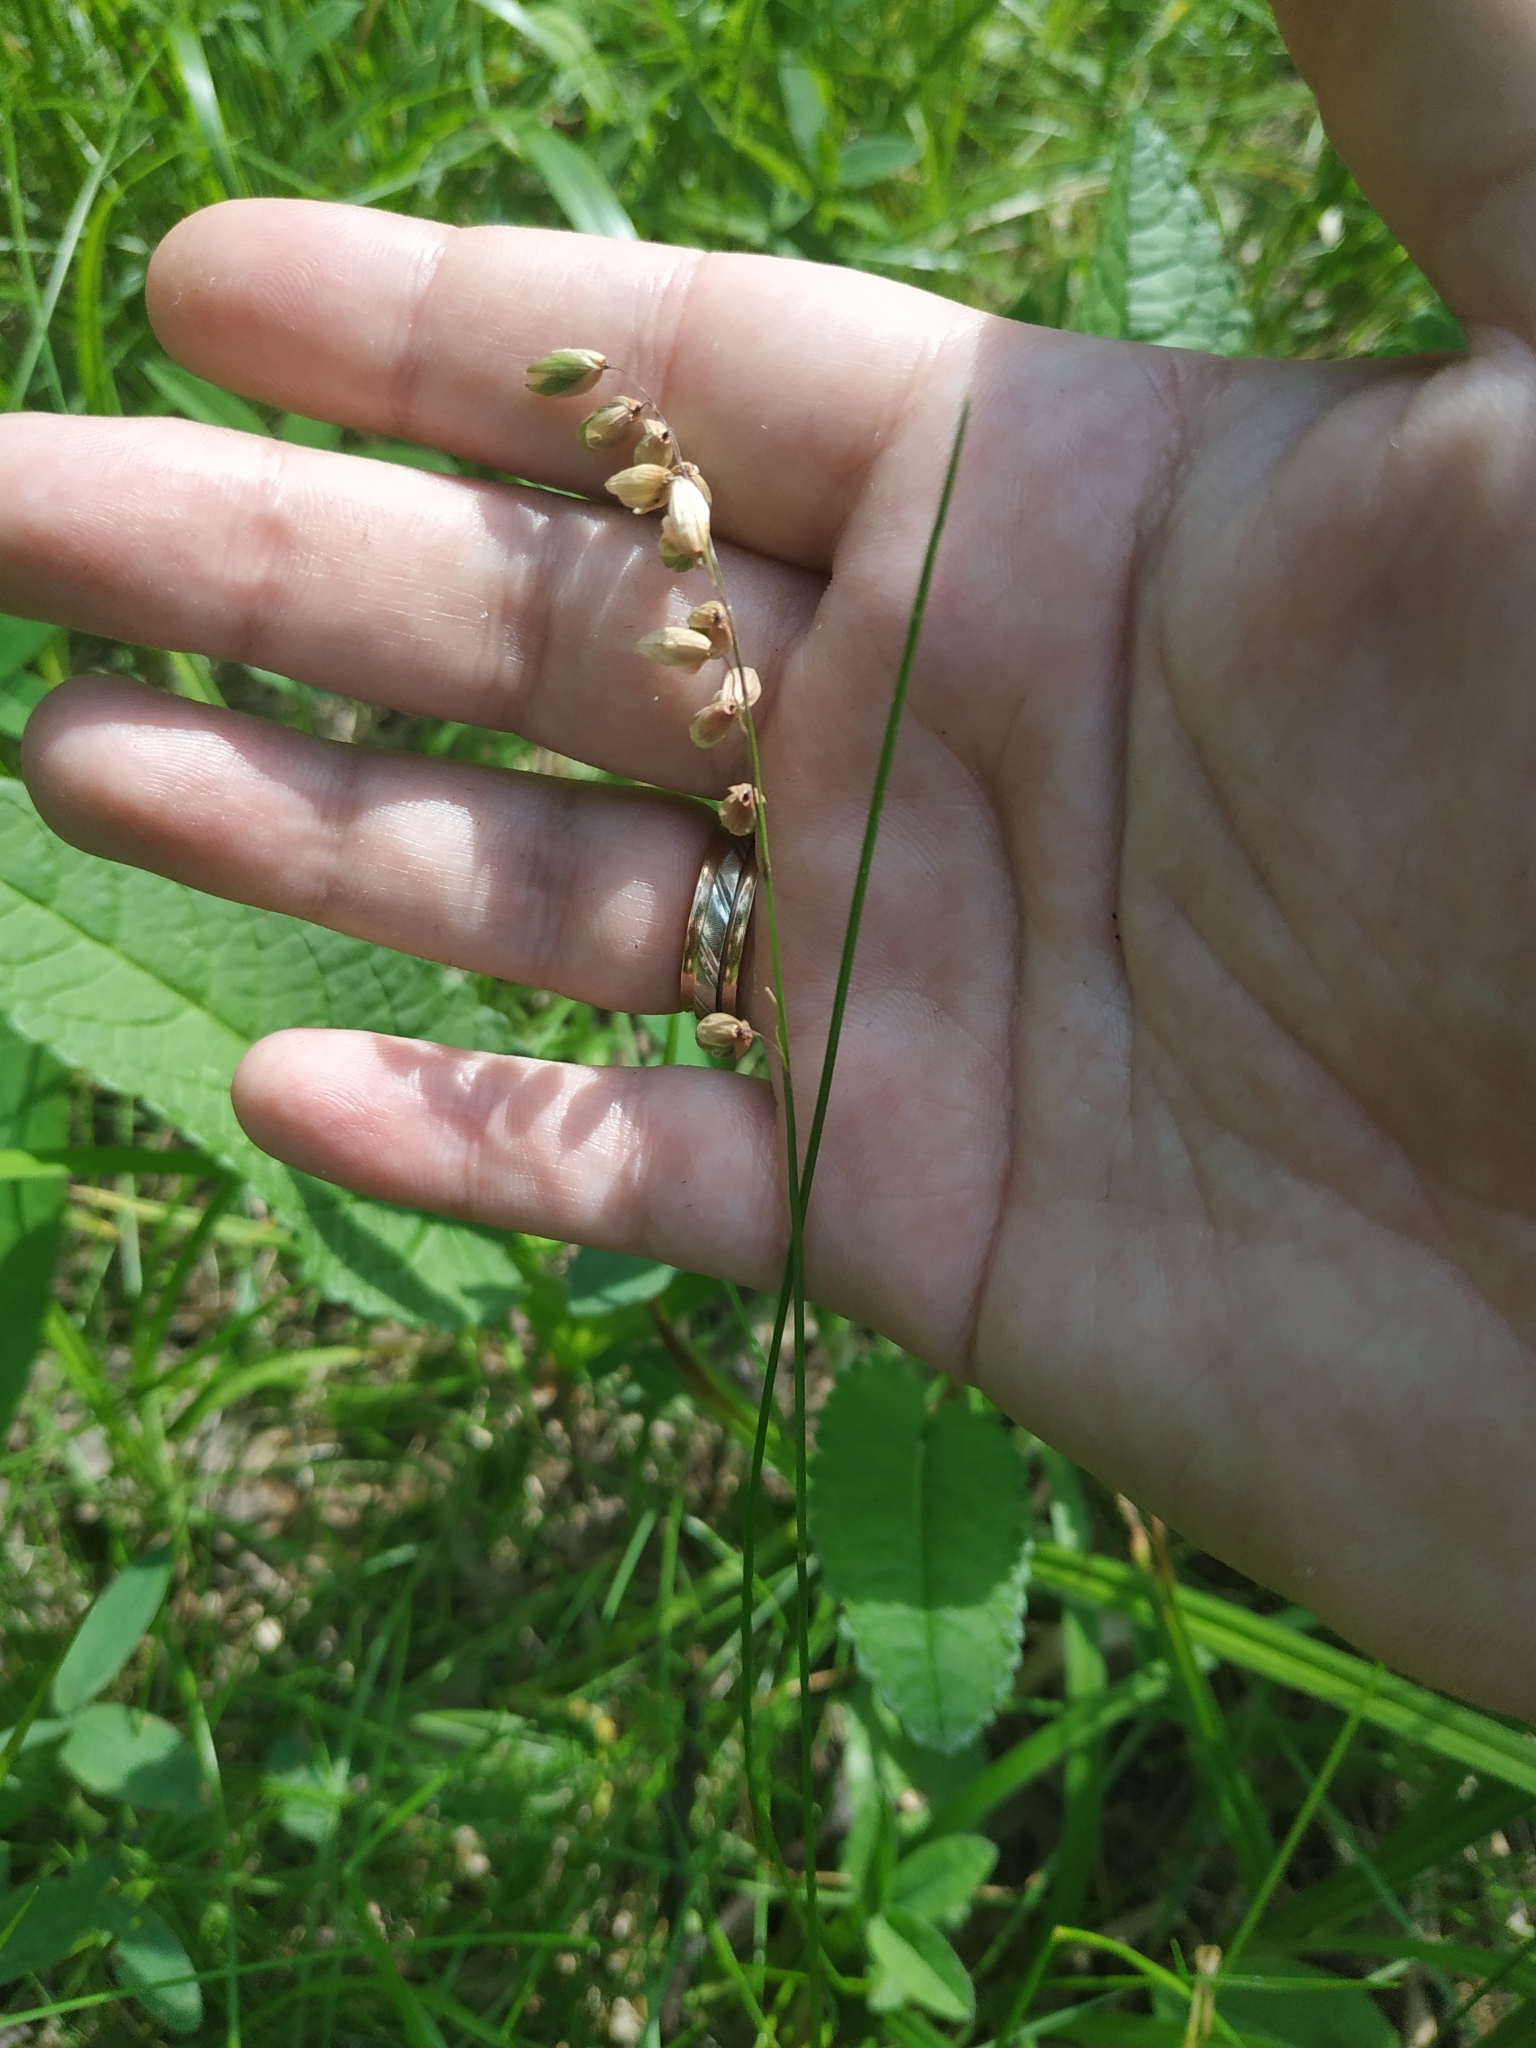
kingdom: Plantae
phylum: Tracheophyta
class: Liliopsida
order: Poales
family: Poaceae
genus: Melica
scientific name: Melica nutans
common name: Mountain melick
